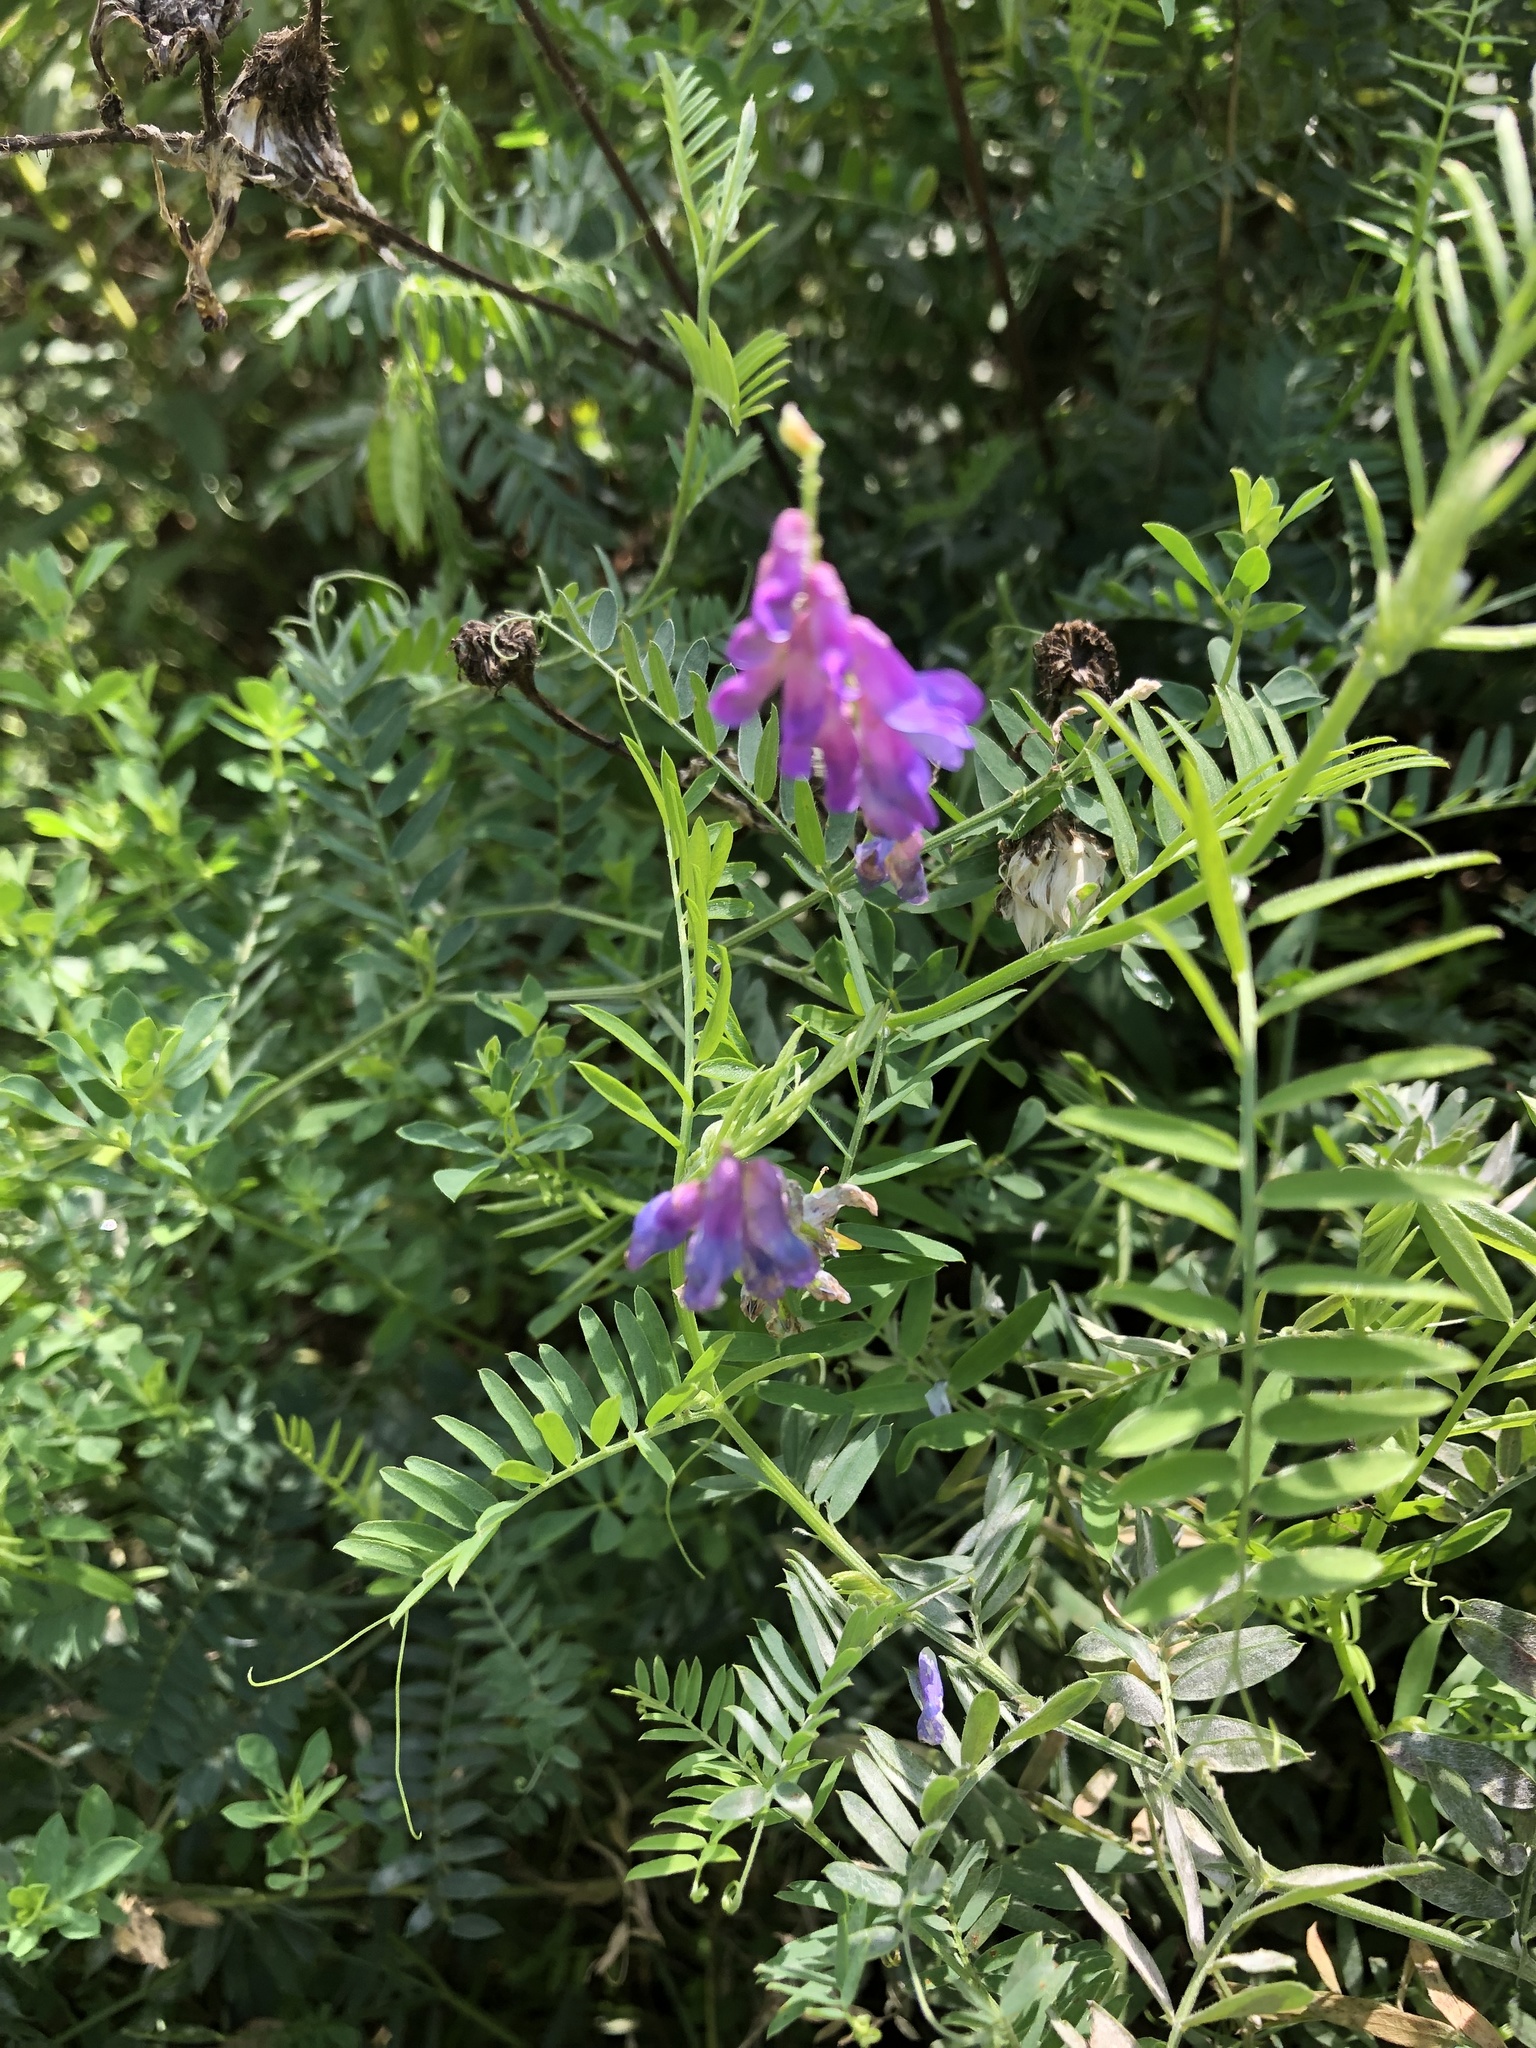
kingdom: Plantae
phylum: Tracheophyta
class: Magnoliopsida
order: Fabales
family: Fabaceae
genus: Vicia
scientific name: Vicia cracca
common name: Bird vetch
